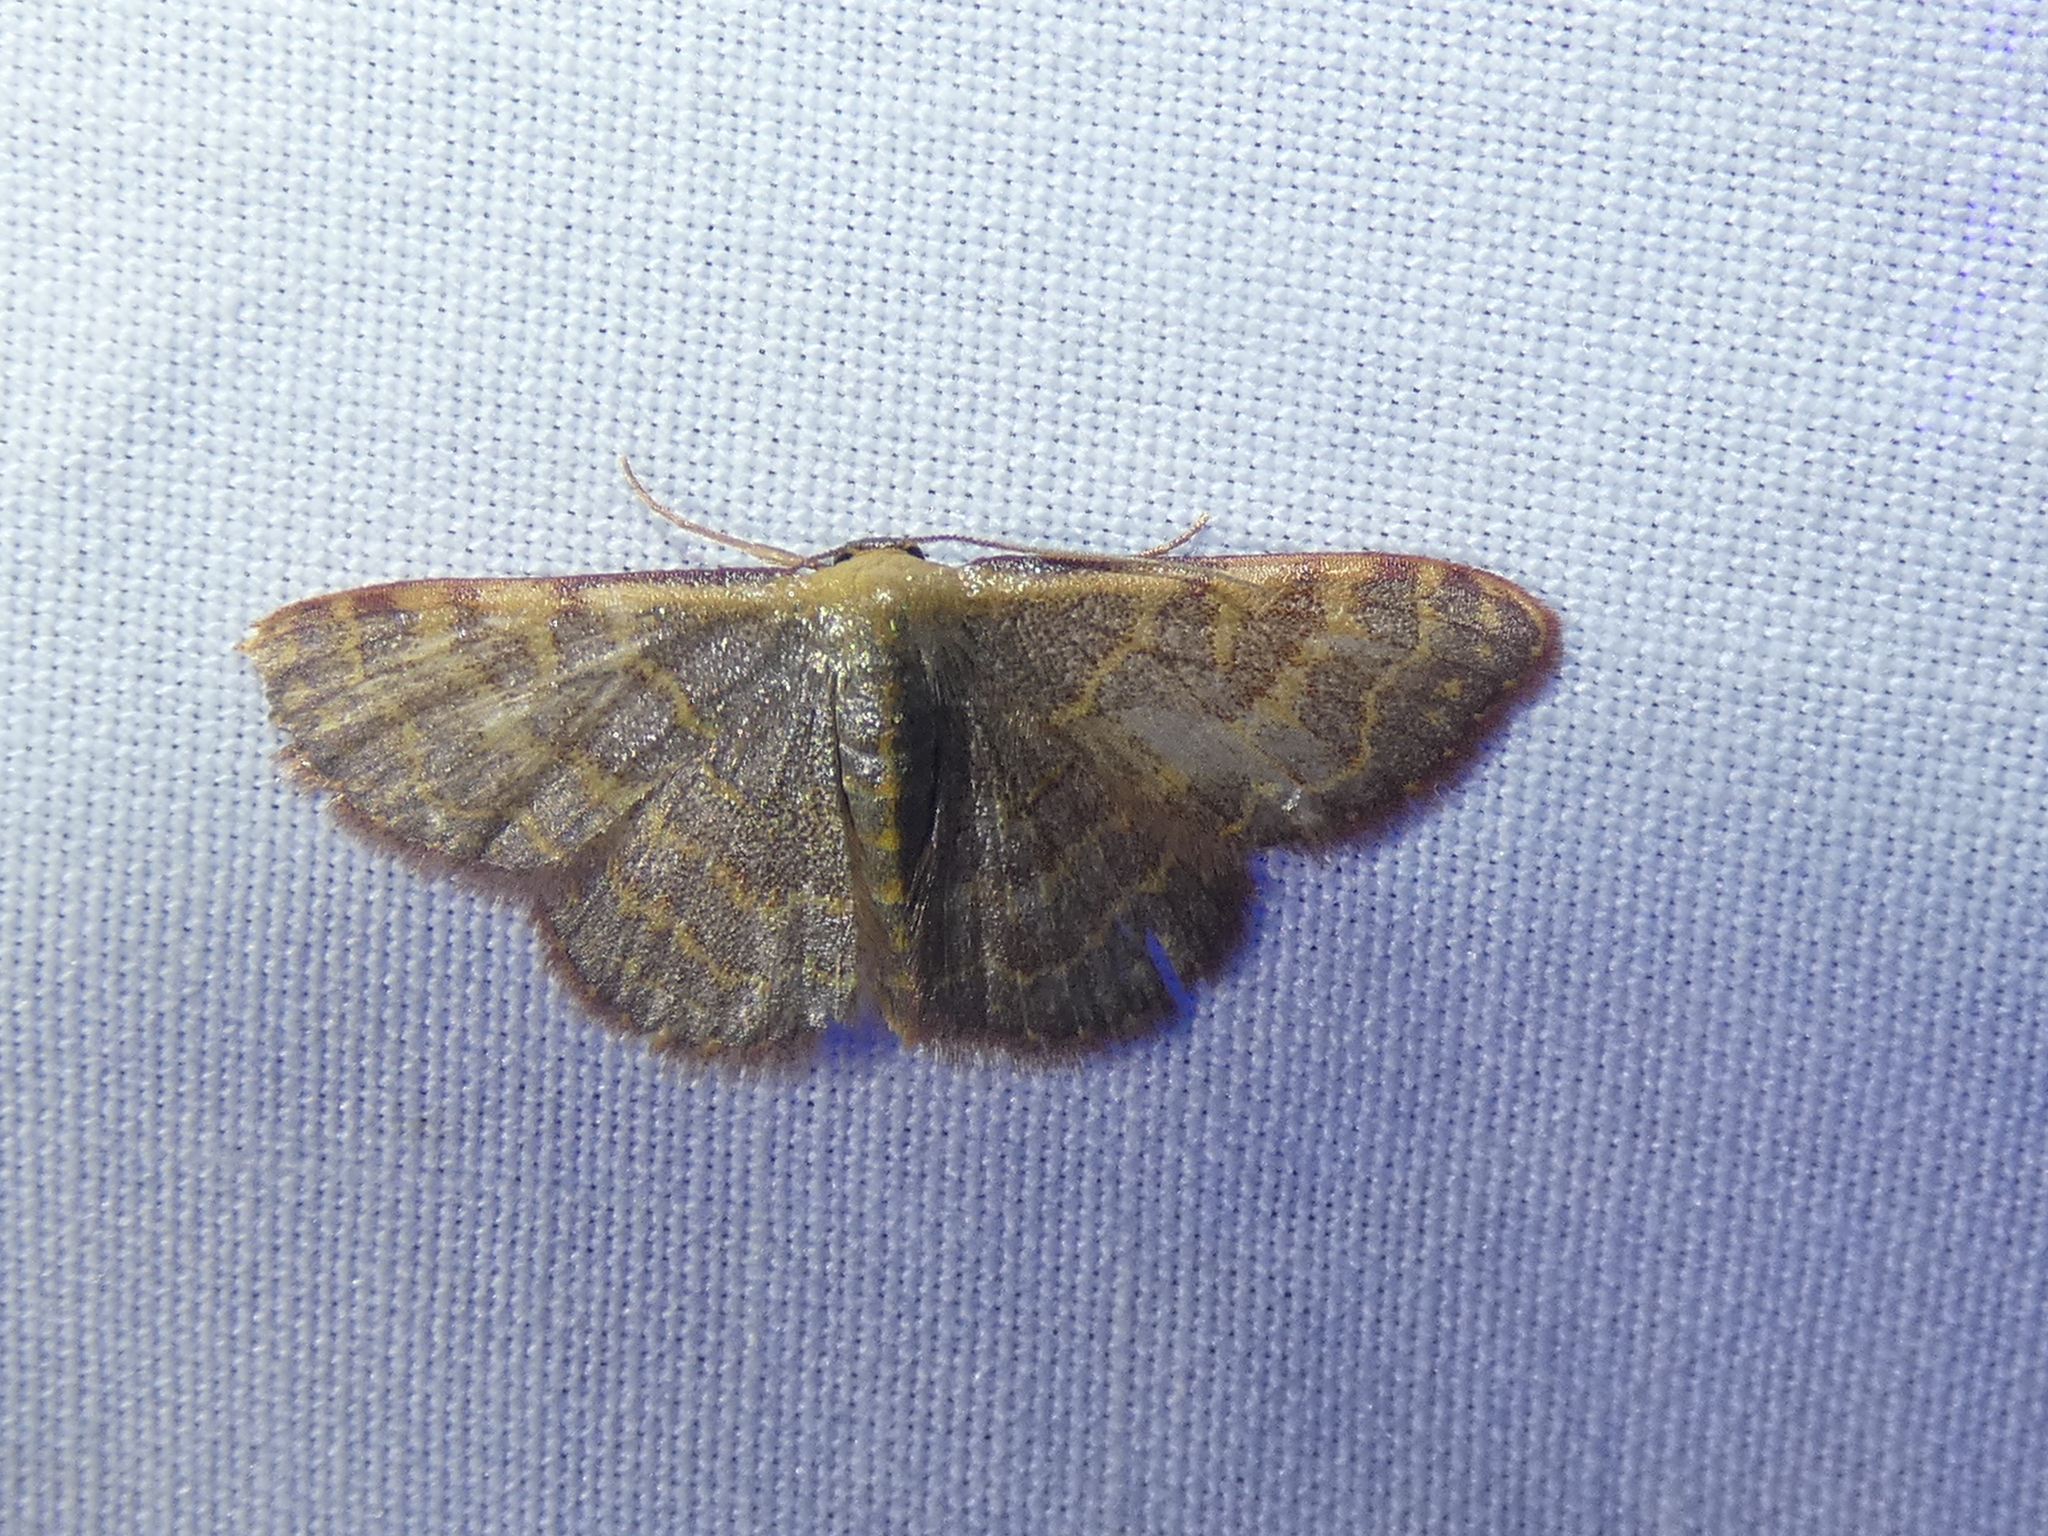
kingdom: Animalia
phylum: Arthropoda
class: Insecta
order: Lepidoptera
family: Geometridae
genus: Leptostales
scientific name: Leptostales pannaria
